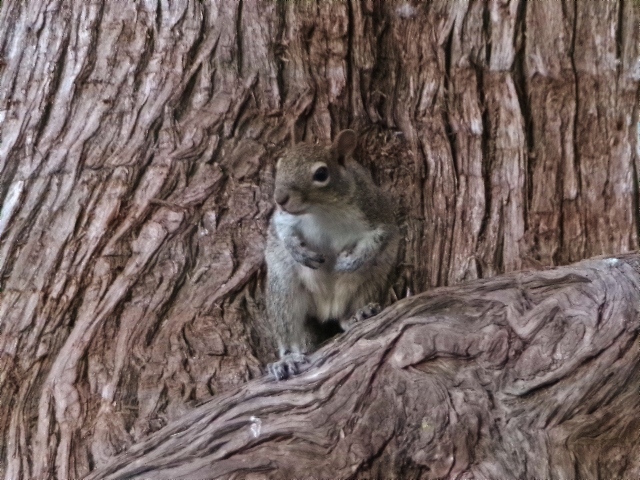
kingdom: Animalia
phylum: Chordata
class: Mammalia
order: Rodentia
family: Sciuridae
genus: Sciurus
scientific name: Sciurus alleni
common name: Allen's squirrel
